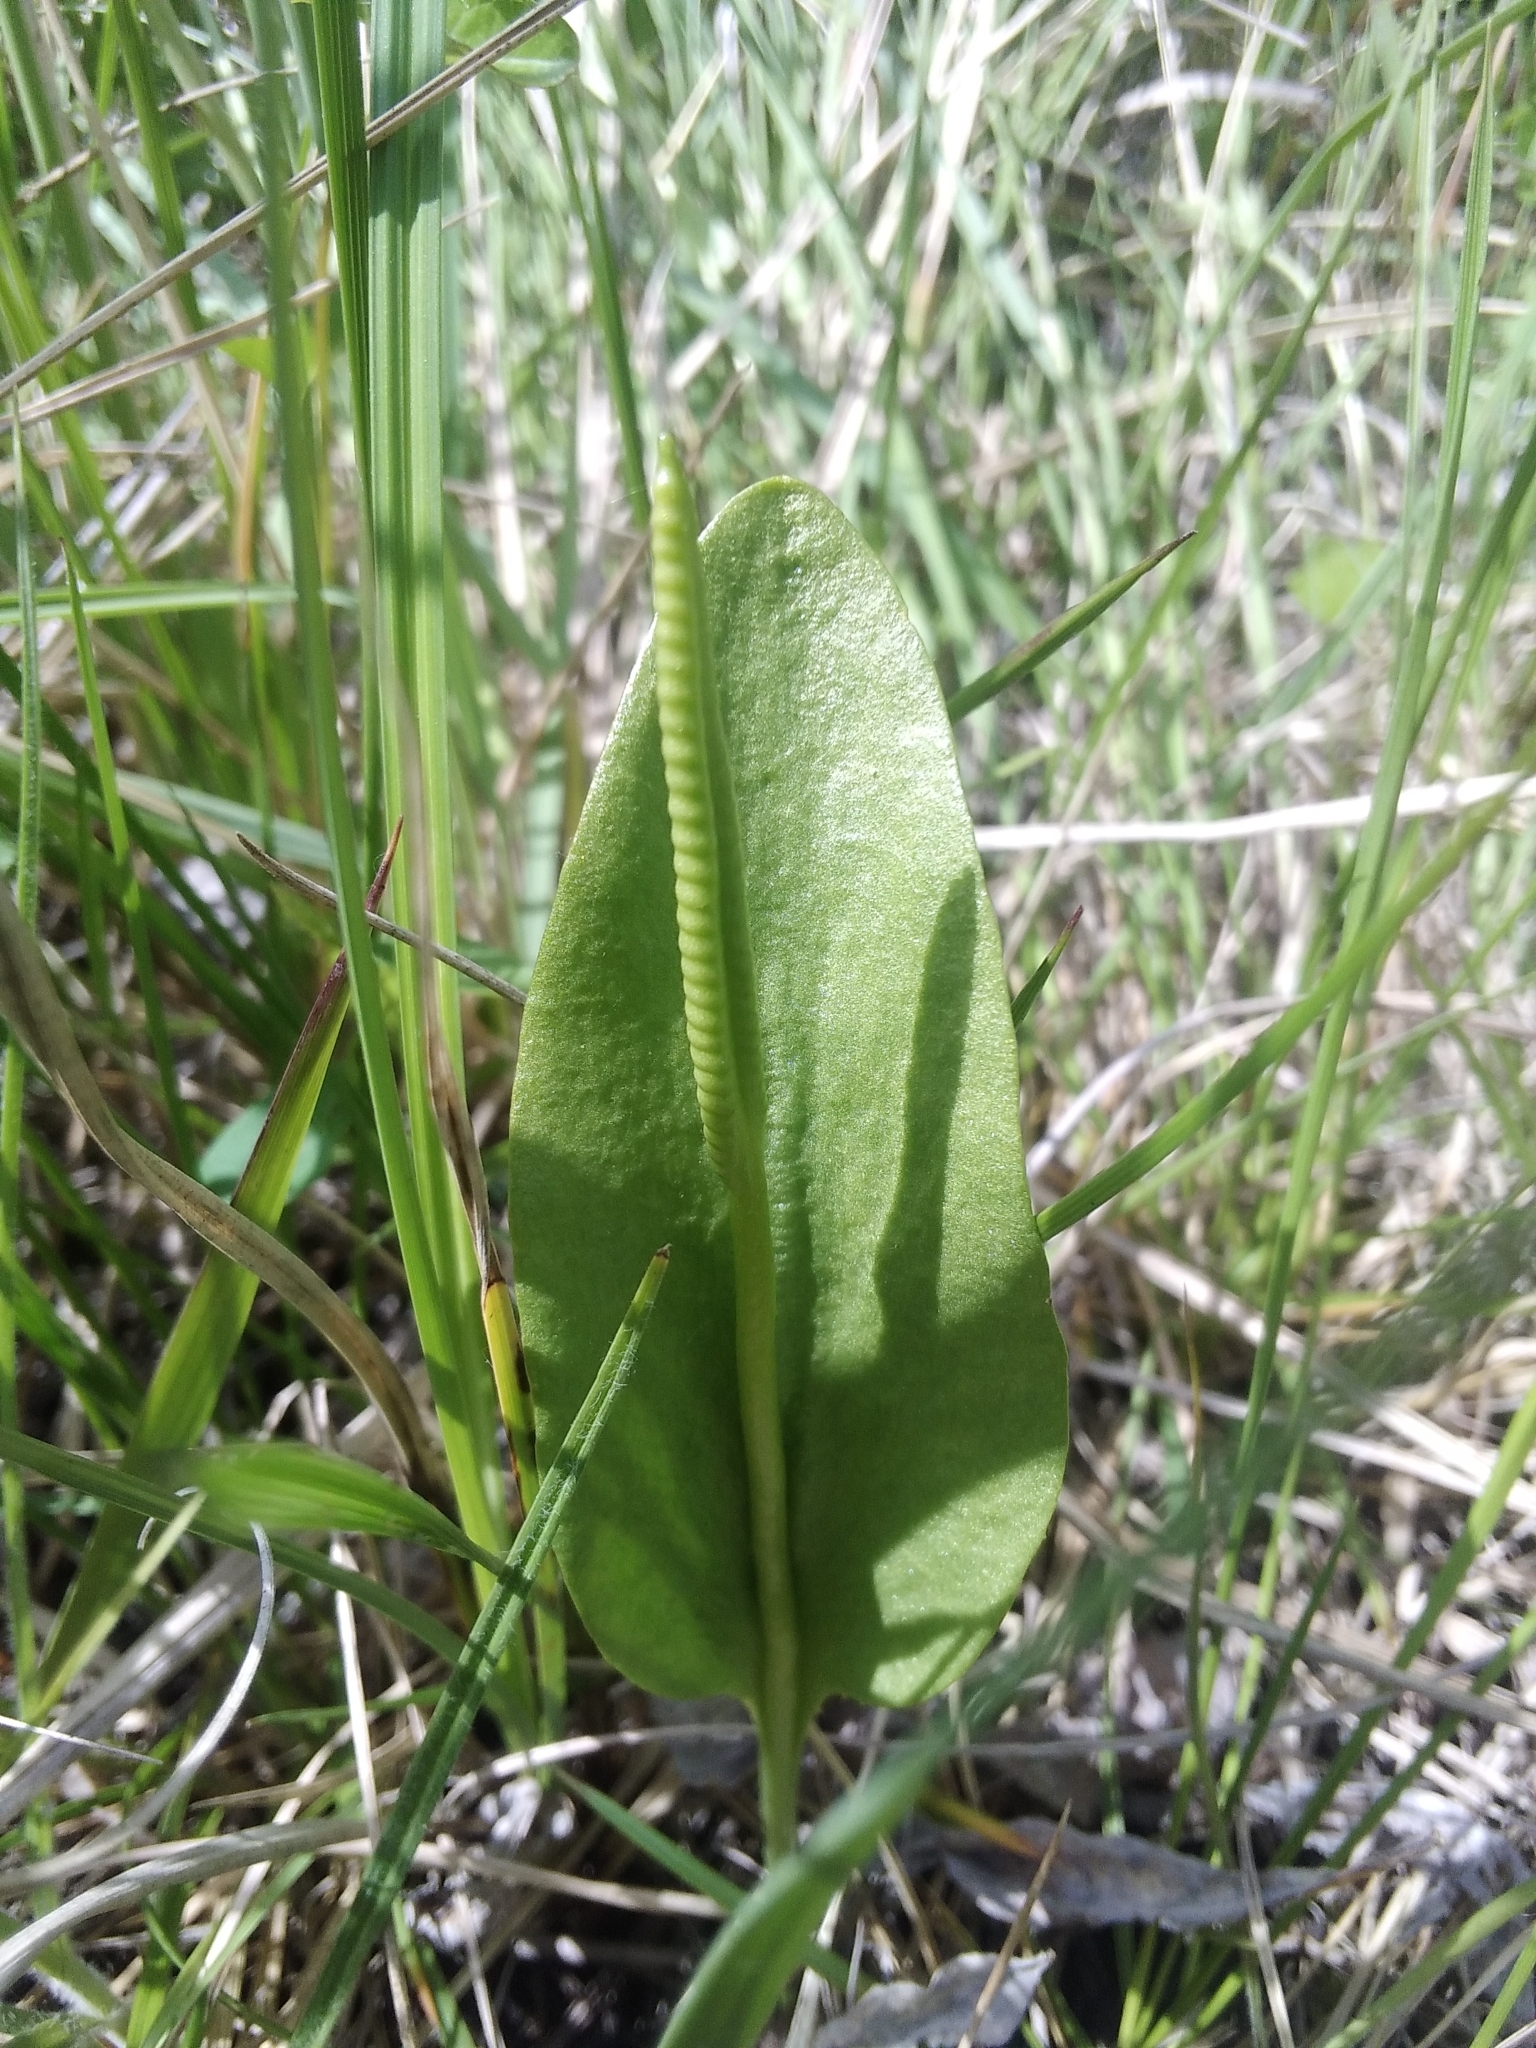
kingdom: Plantae
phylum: Tracheophyta
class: Polypodiopsida
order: Ophioglossales
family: Ophioglossaceae
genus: Ophioglossum
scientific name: Ophioglossum vulgatum
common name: Adder's-tongue
